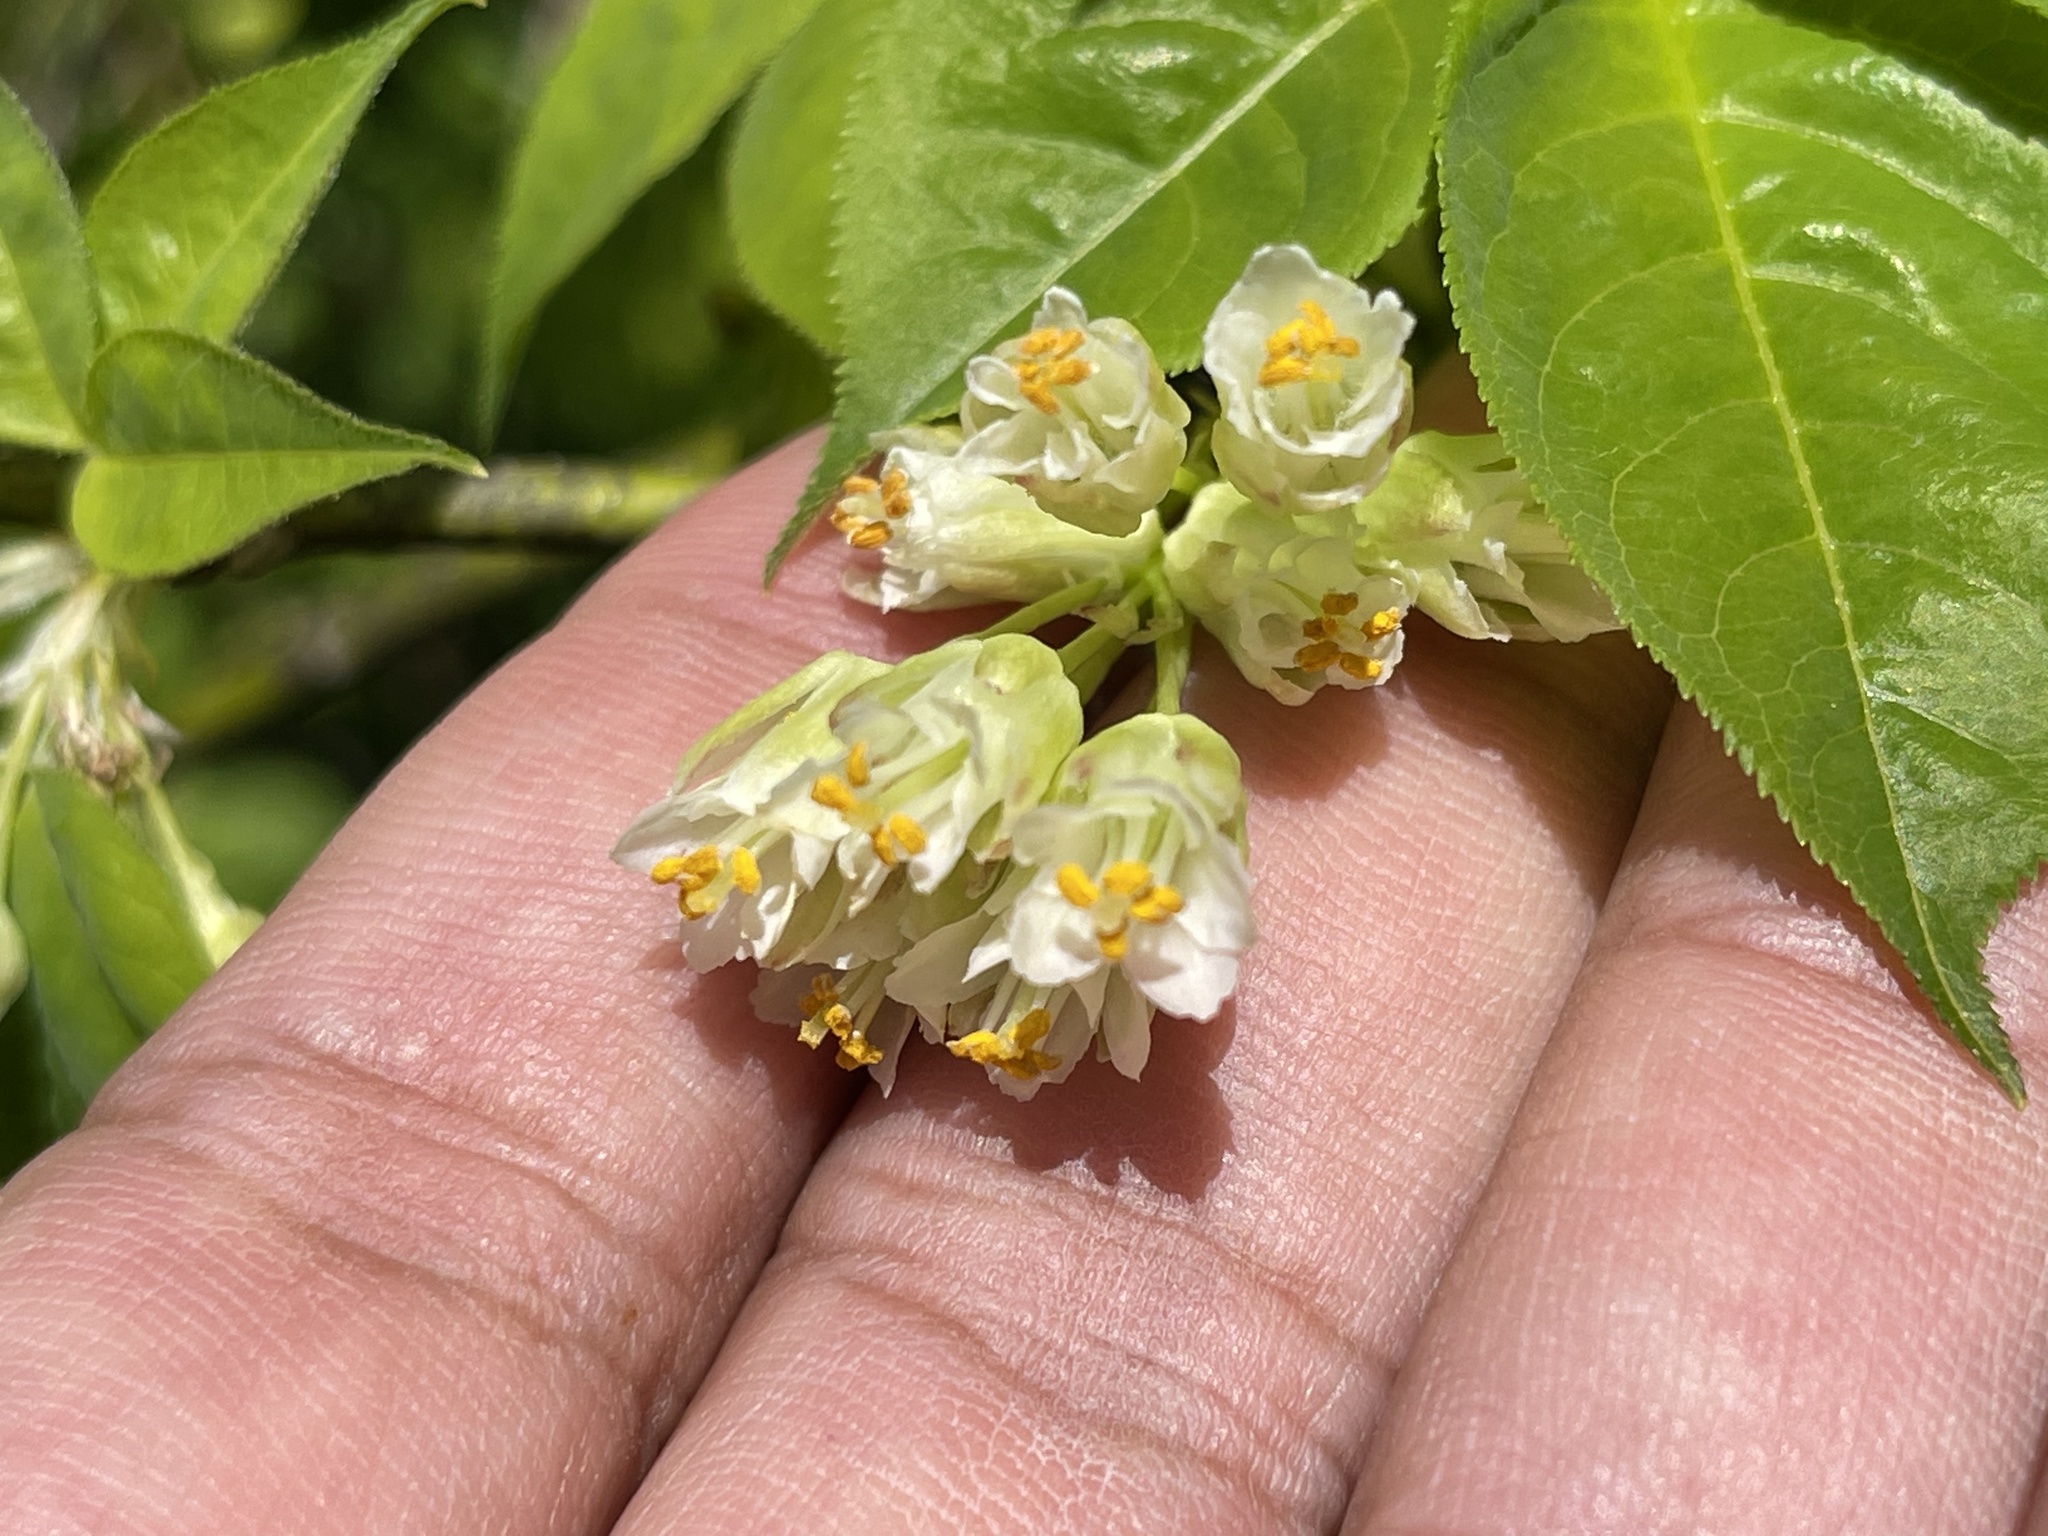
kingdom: Plantae
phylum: Tracheophyta
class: Magnoliopsida
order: Crossosomatales
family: Staphyleaceae
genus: Staphylea
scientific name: Staphylea trifolia
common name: American bladdernut
